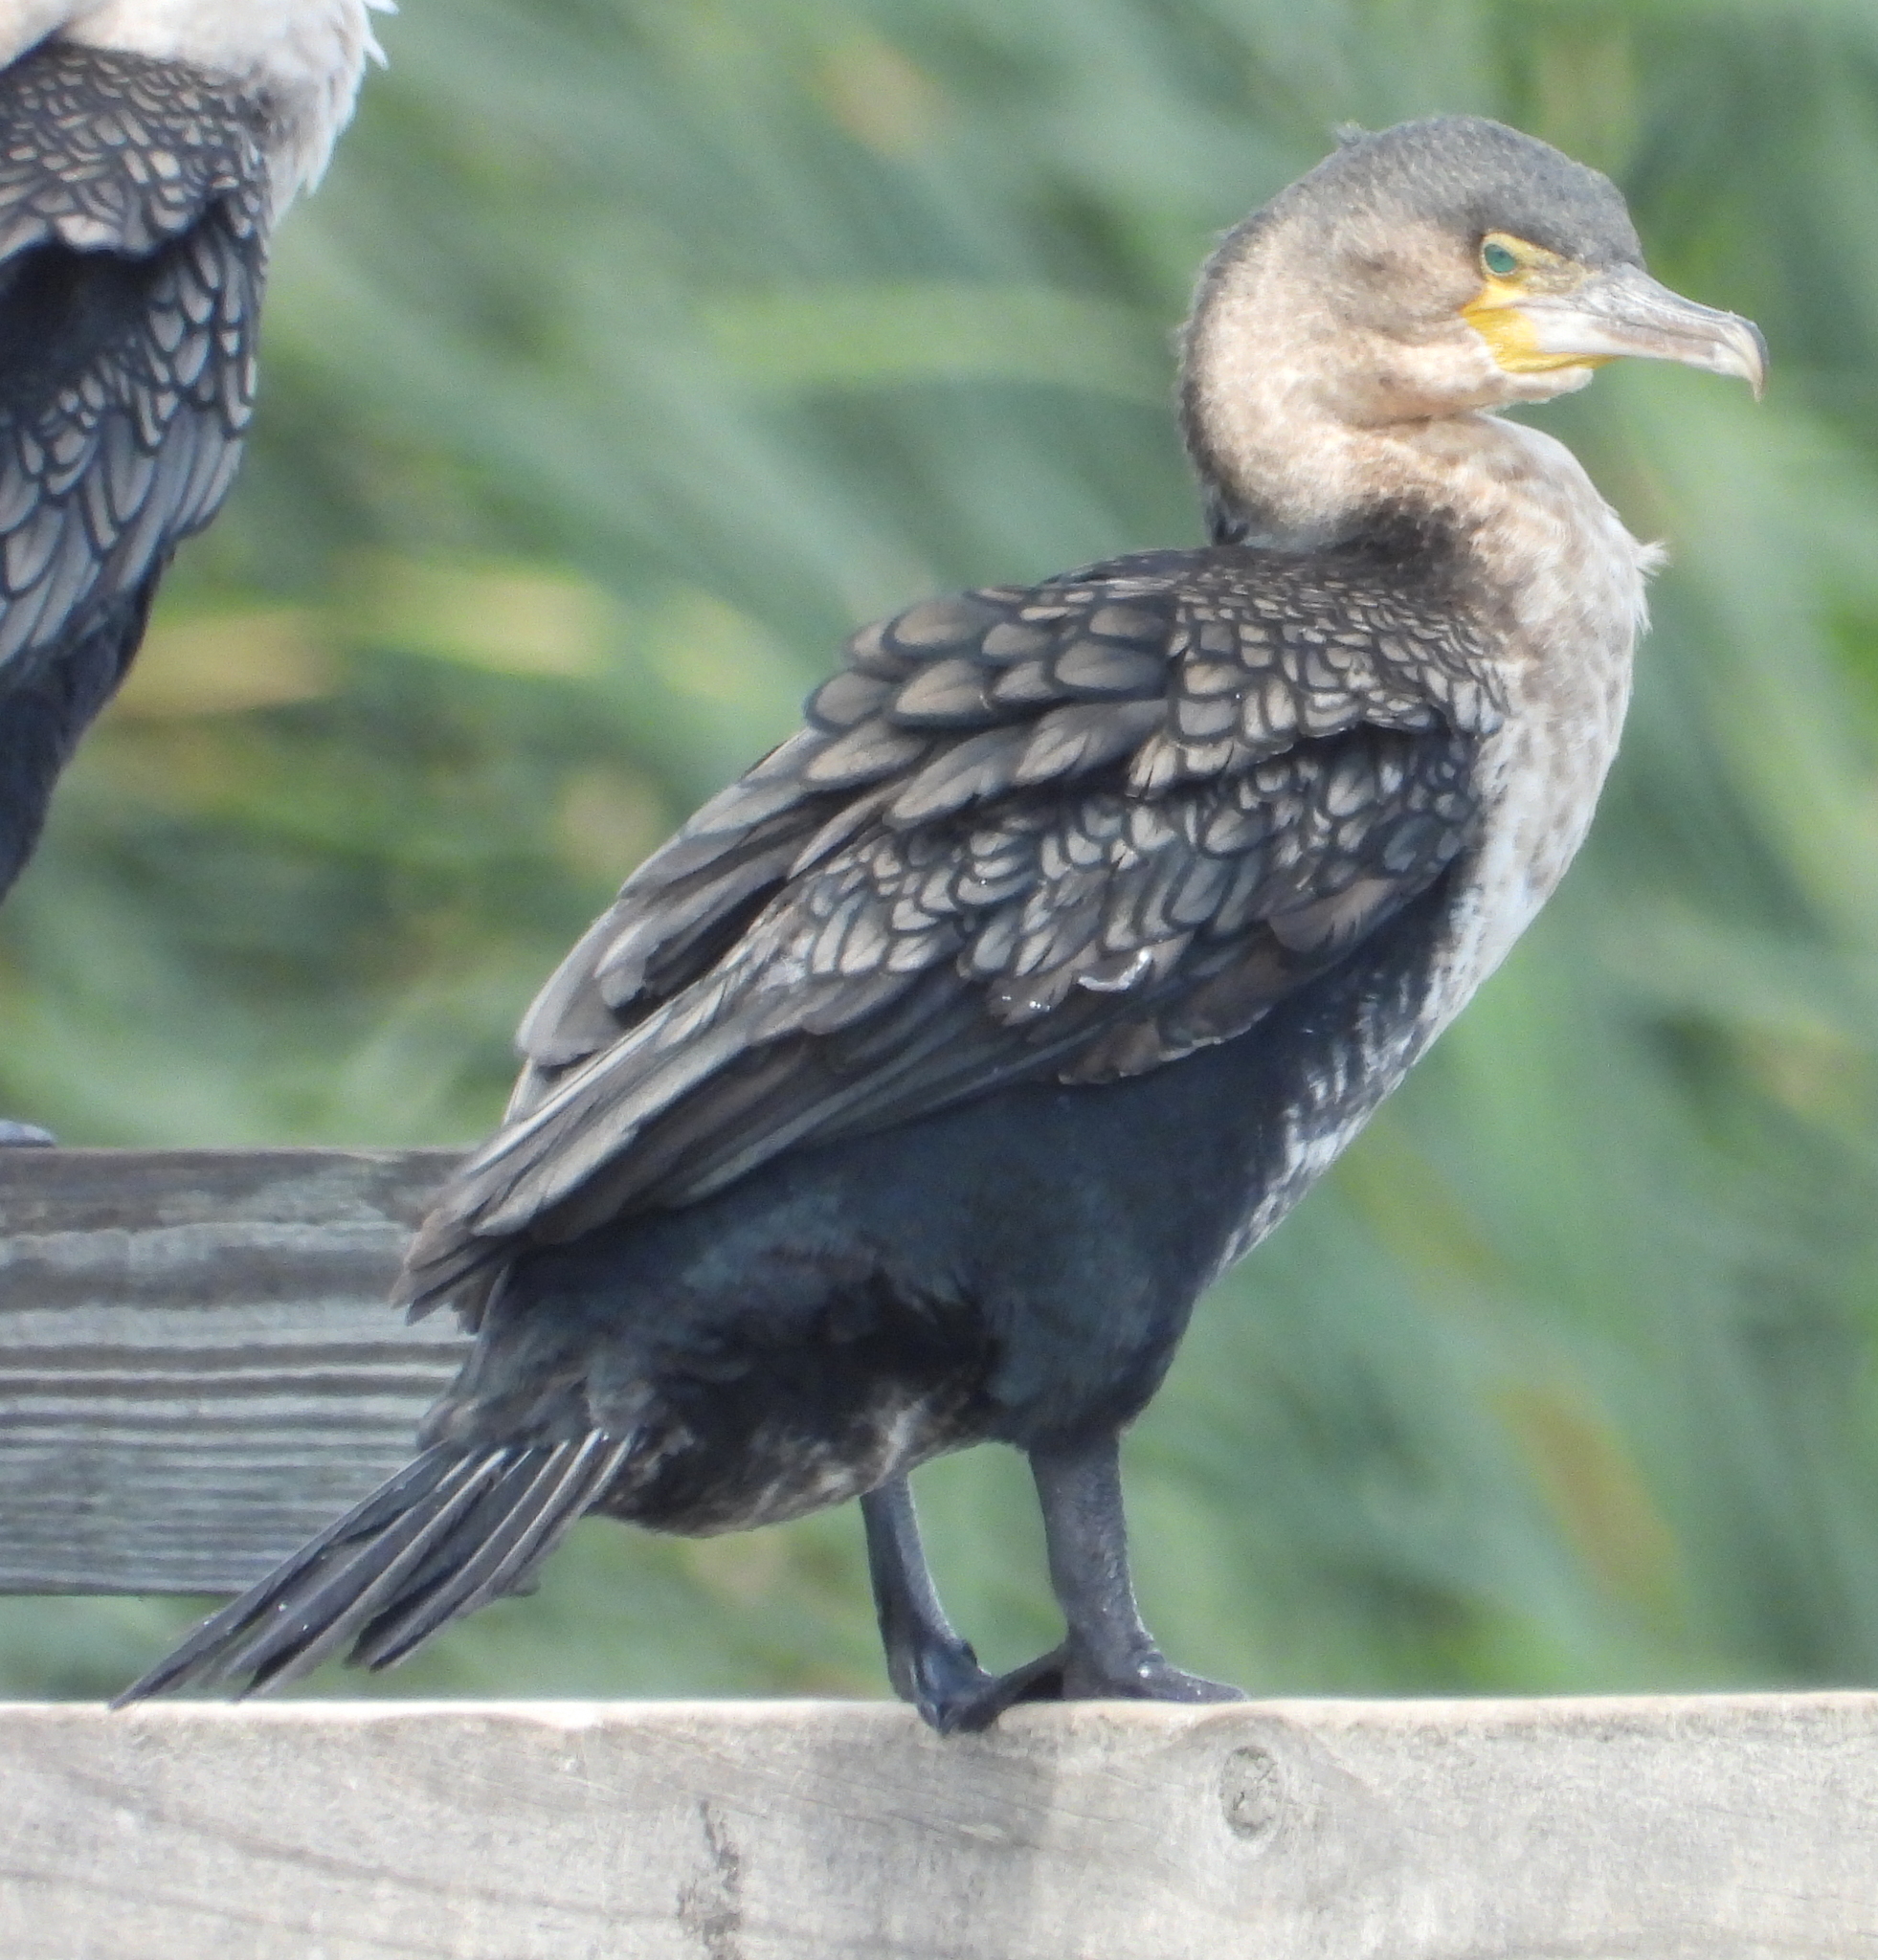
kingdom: Animalia
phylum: Chordata
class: Aves
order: Suliformes
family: Phalacrocoracidae
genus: Phalacrocorax
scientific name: Phalacrocorax carbo
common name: Great cormorant
